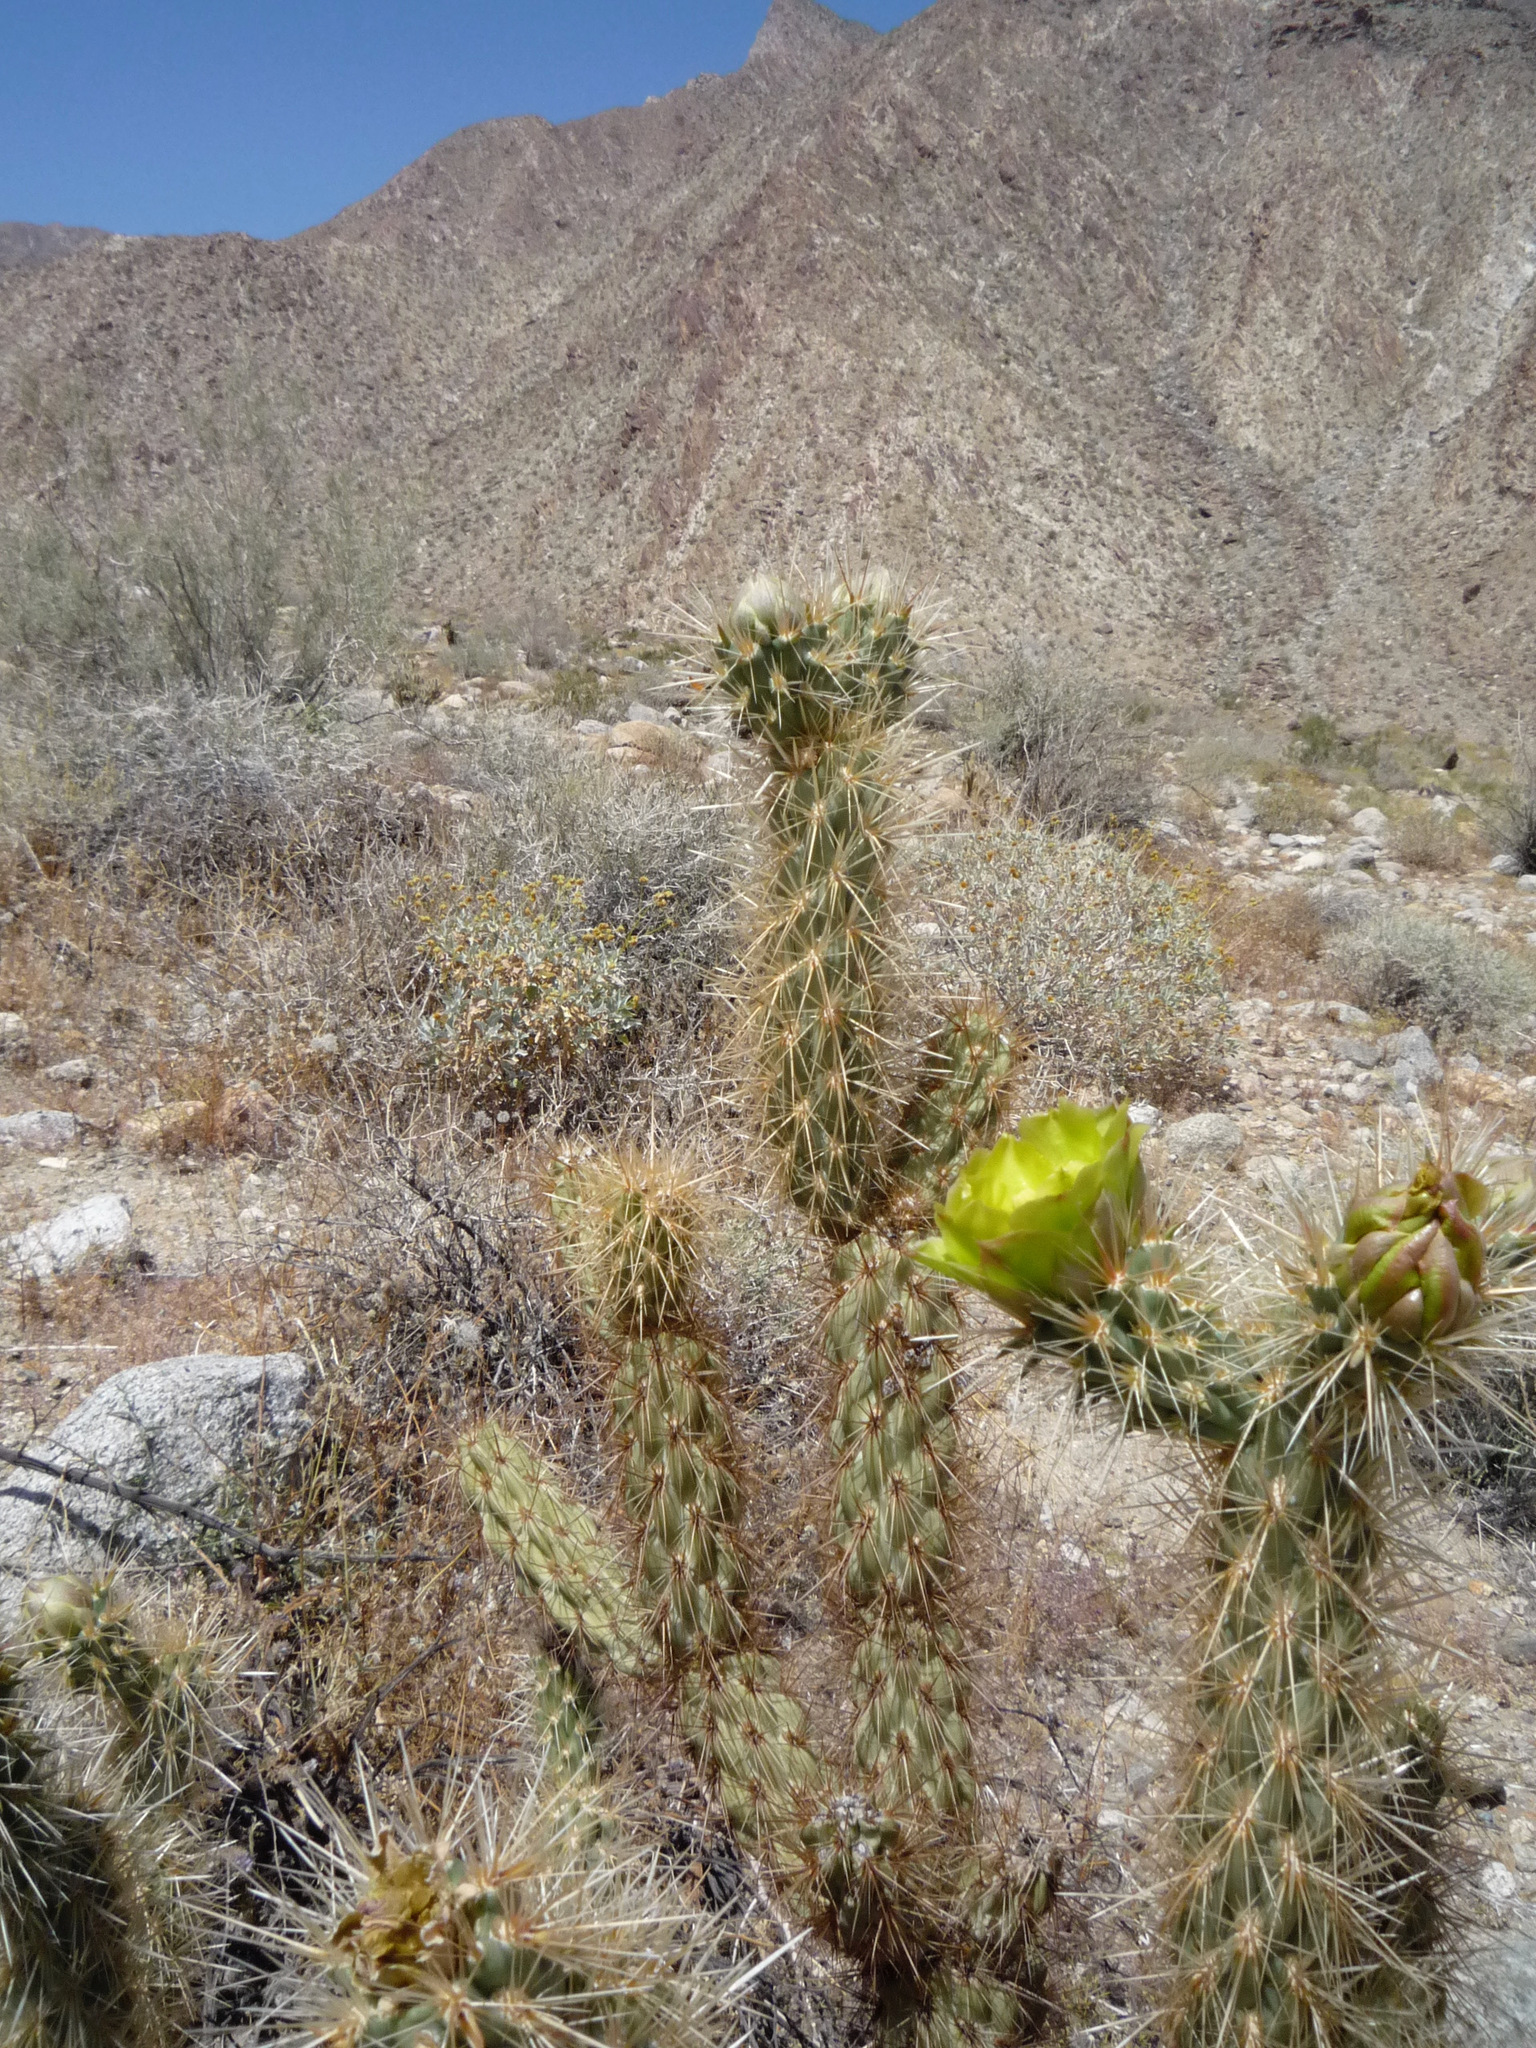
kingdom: Plantae
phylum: Tracheophyta
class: Magnoliopsida
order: Caryophyllales
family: Cactaceae
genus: Cylindropuntia
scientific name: Cylindropuntia ganderi
